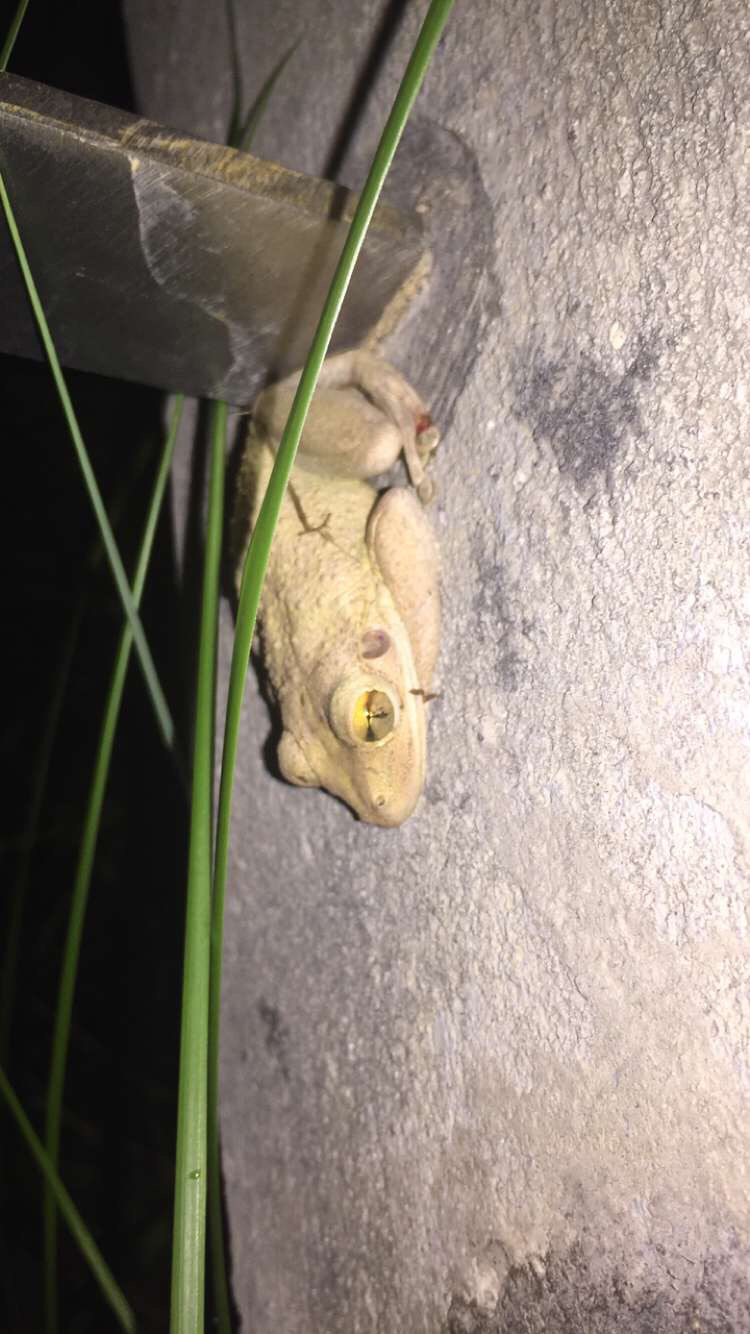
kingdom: Animalia
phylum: Chordata
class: Amphibia
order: Anura
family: Hylidae
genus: Osteopilus
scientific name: Osteopilus septentrionalis
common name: Cuban treefrog
